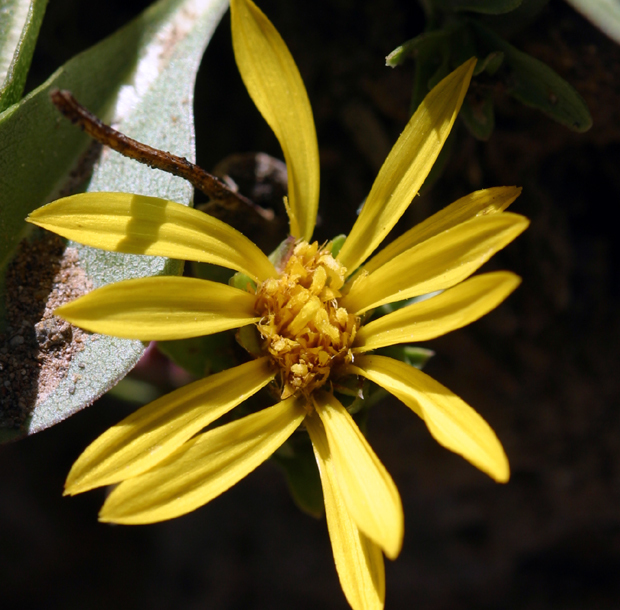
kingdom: Plantae
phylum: Tracheophyta
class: Magnoliopsida
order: Asterales
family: Asteraceae
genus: Pyrrocoma
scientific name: Pyrrocoma apargioides
